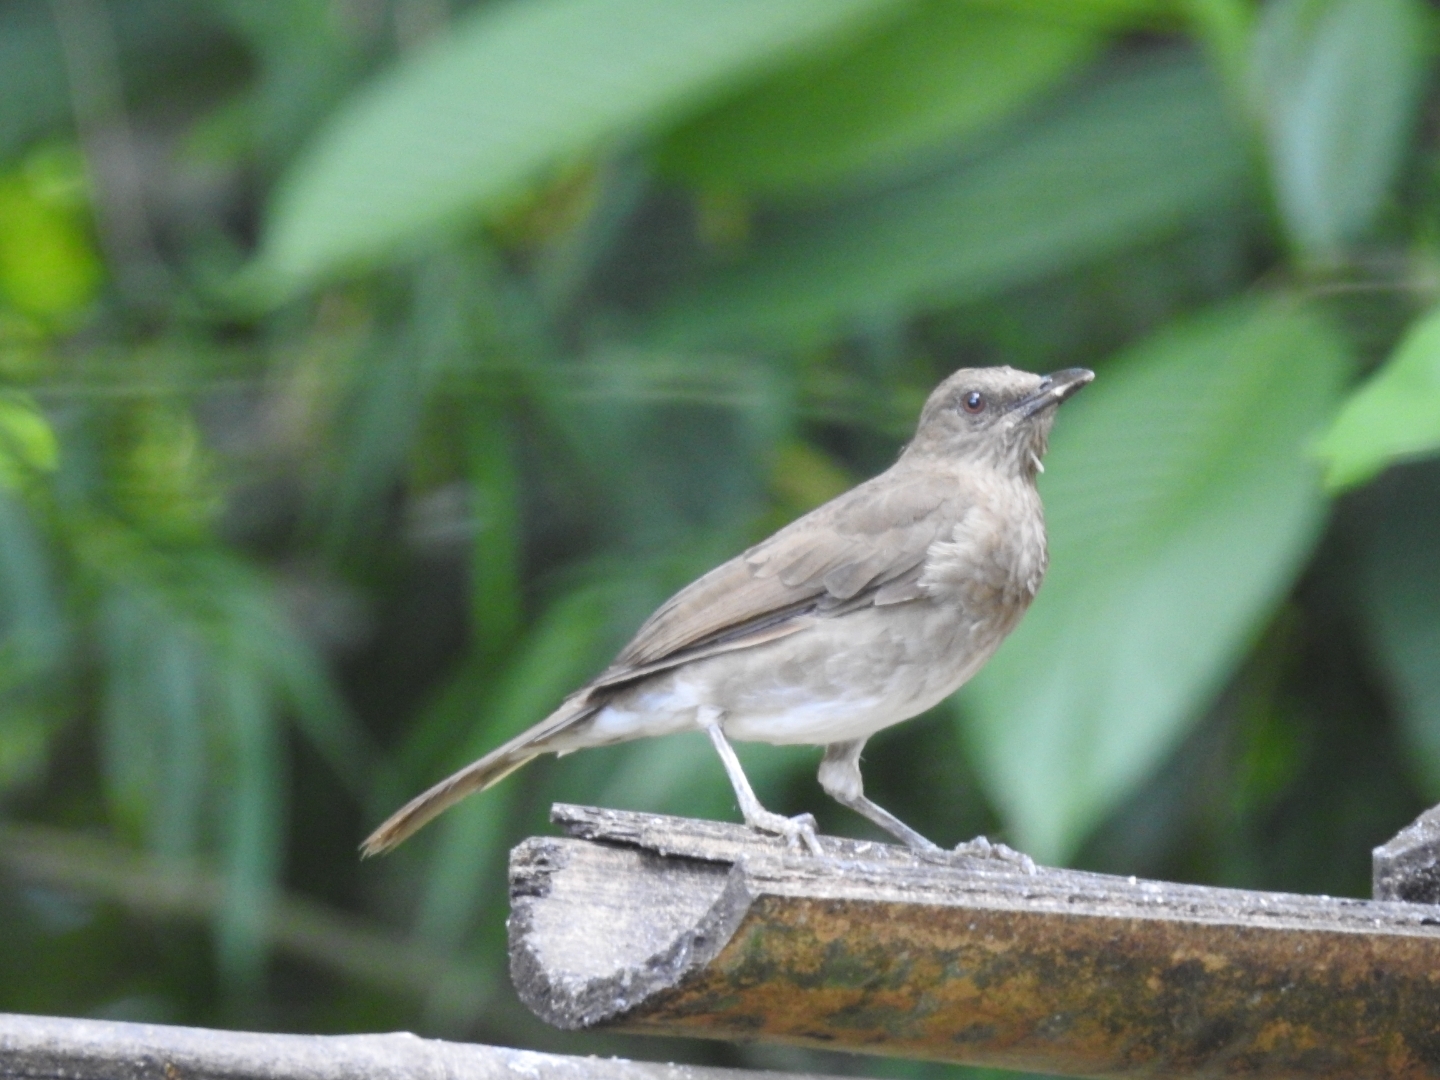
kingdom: Animalia
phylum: Chordata
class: Aves
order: Passeriformes
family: Turdidae
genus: Turdus
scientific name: Turdus ignobilis
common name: Black-billed thrush
